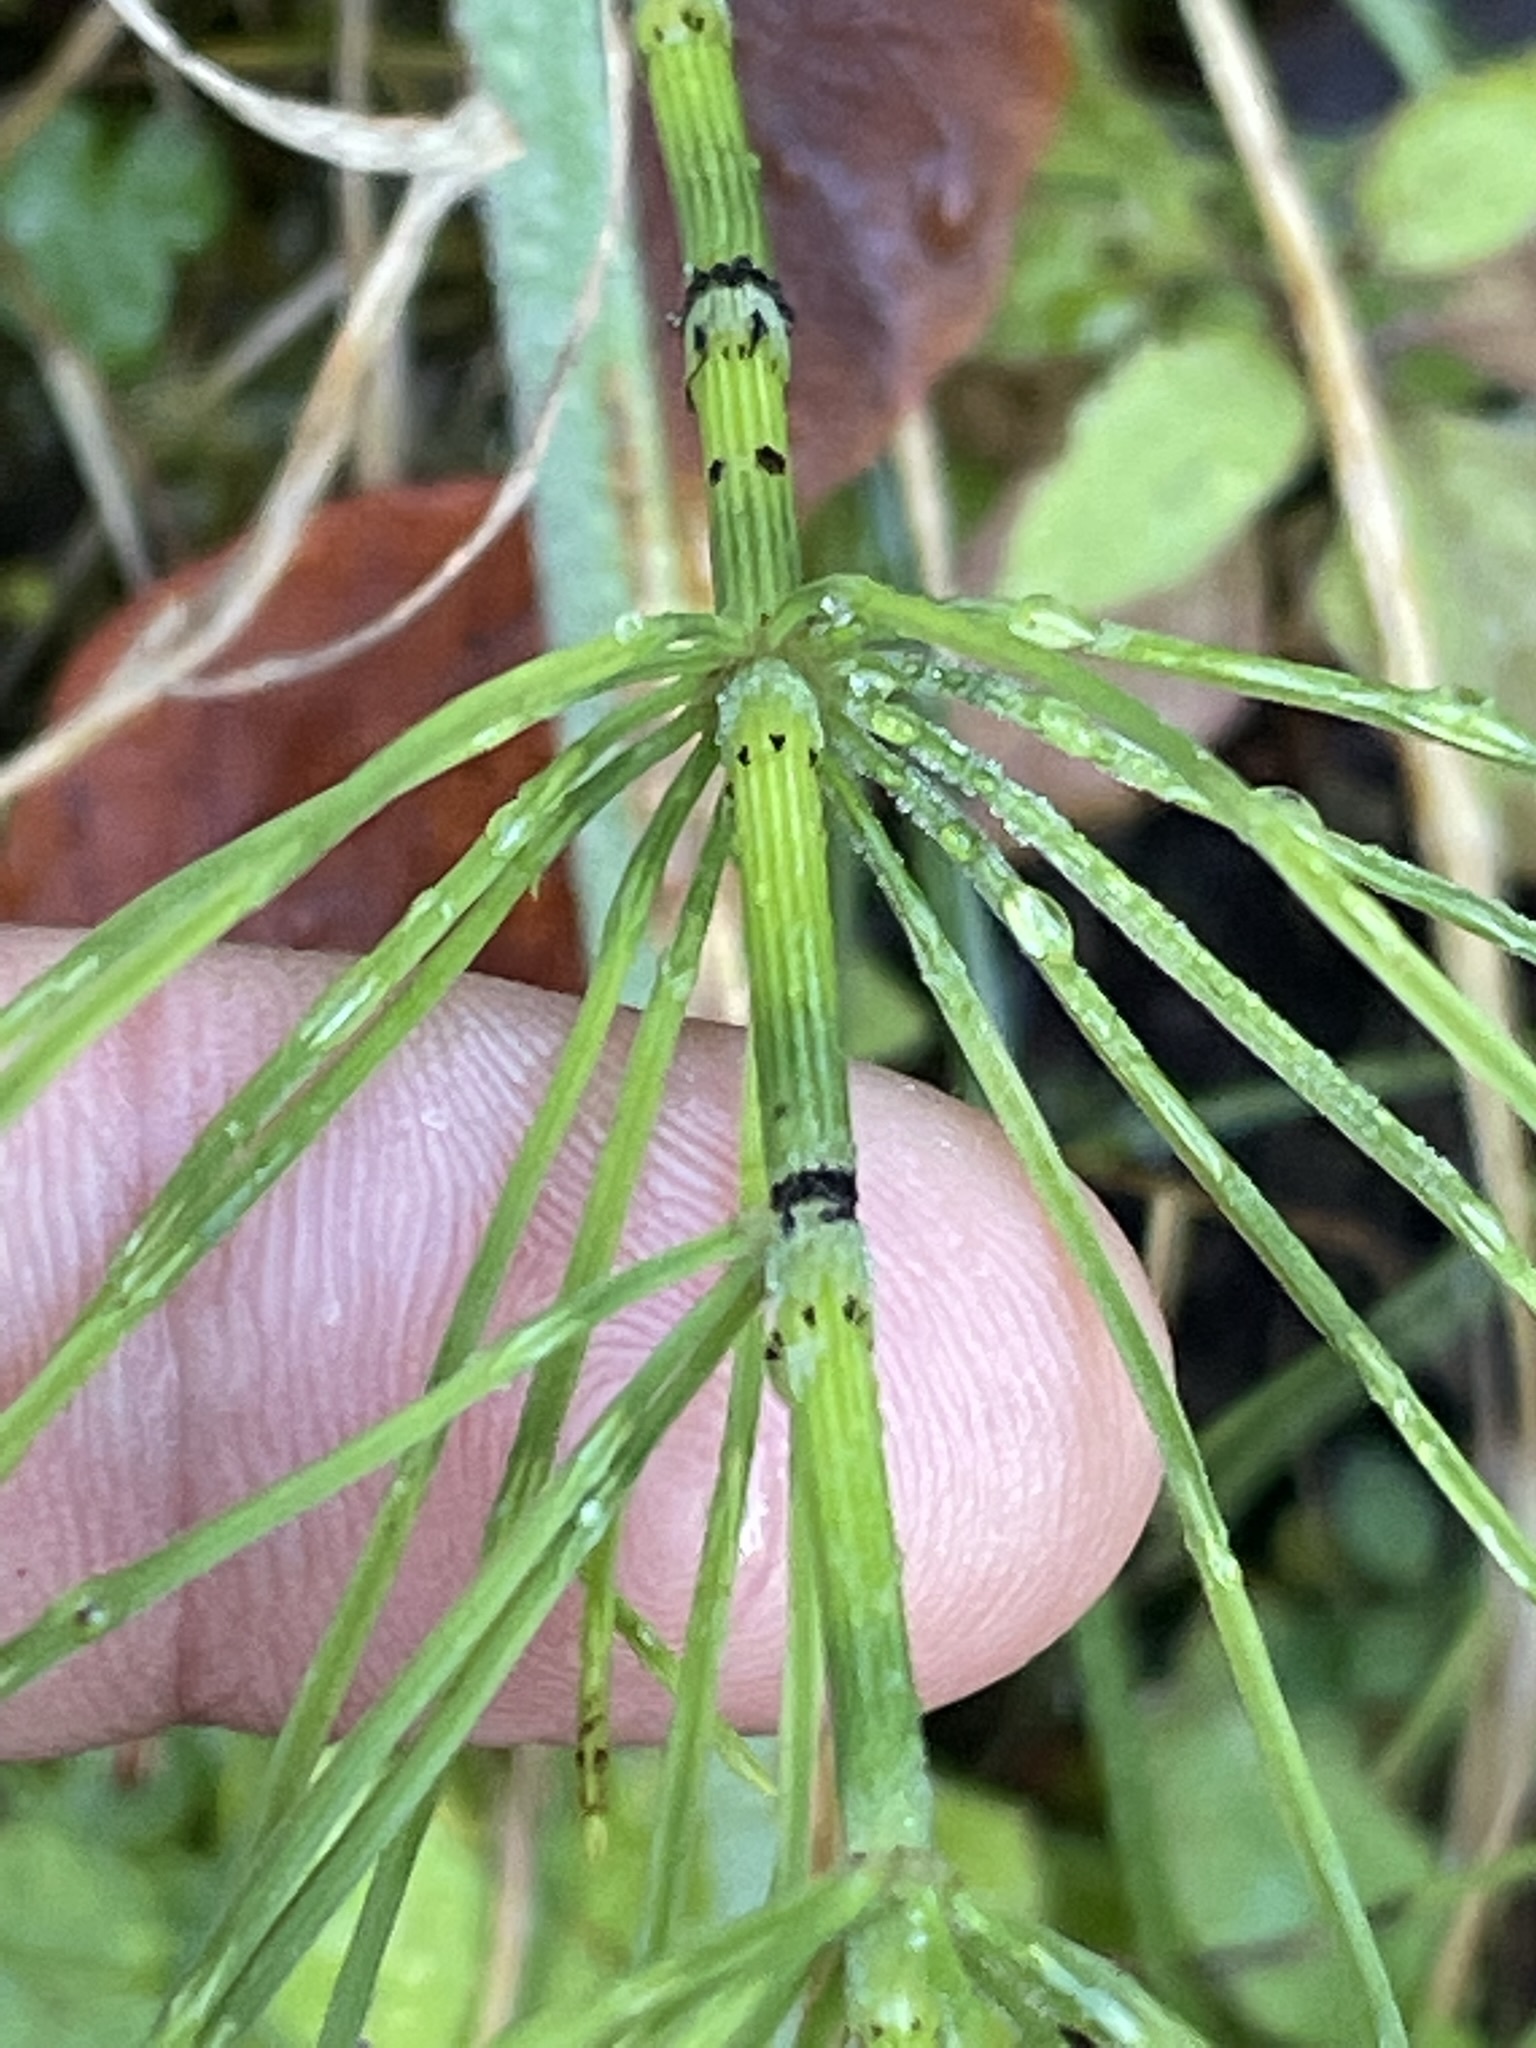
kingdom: Plantae
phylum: Tracheophyta
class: Polypodiopsida
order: Equisetales
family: Equisetaceae
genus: Equisetum
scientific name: Equisetum arvense
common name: Field horsetail
